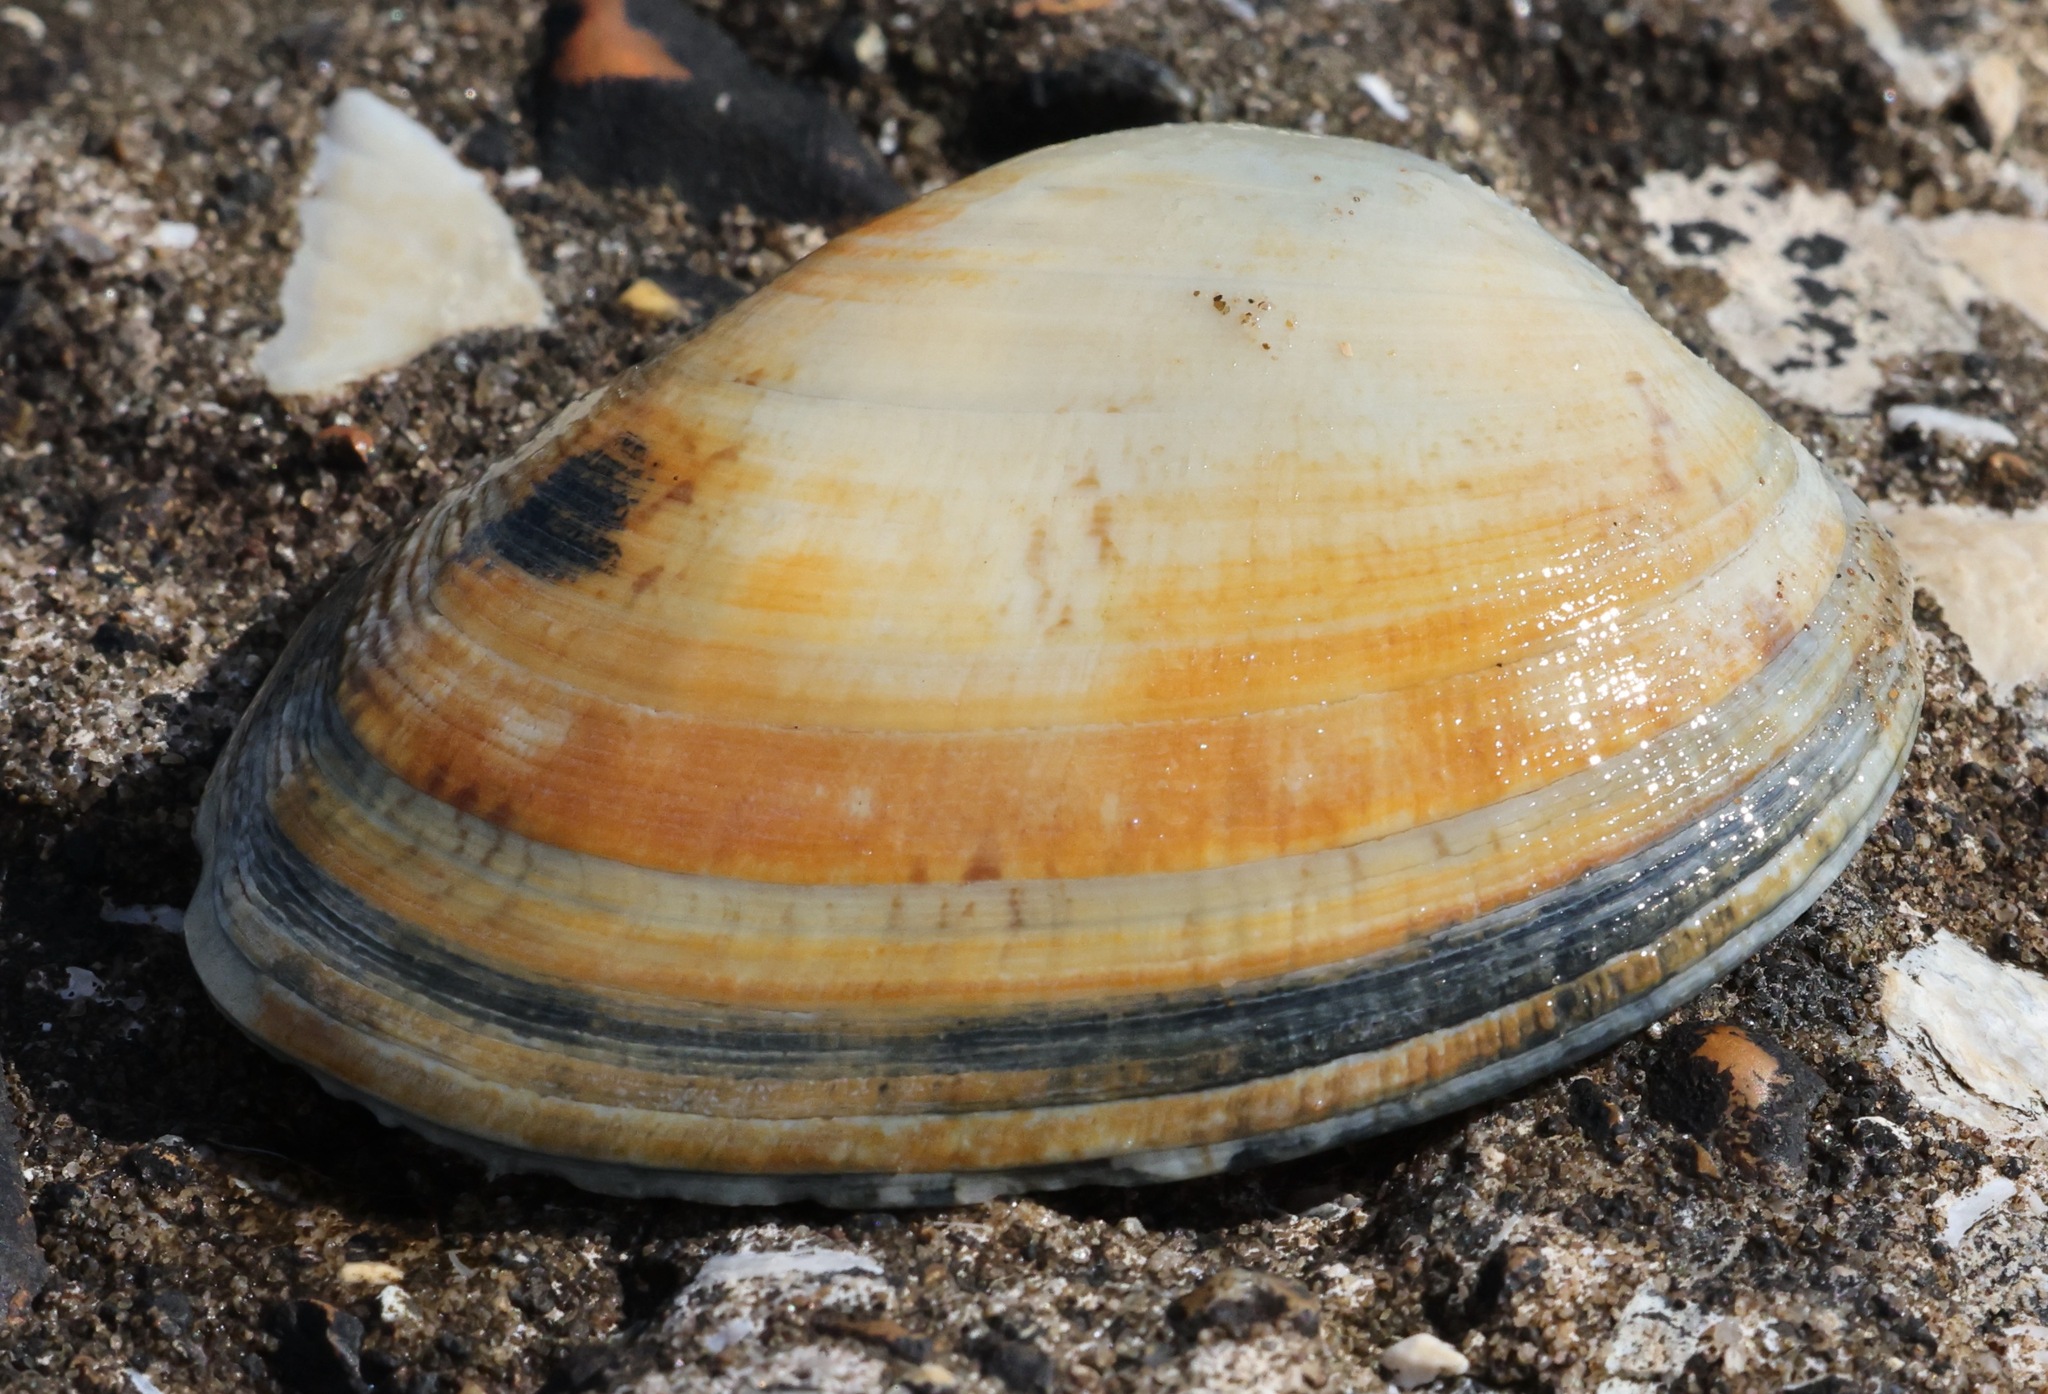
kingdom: Animalia
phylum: Mollusca
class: Bivalvia
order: Venerida
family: Veneridae
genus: Venerupis
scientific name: Venerupis corrugata
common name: Pullet carpet shell
